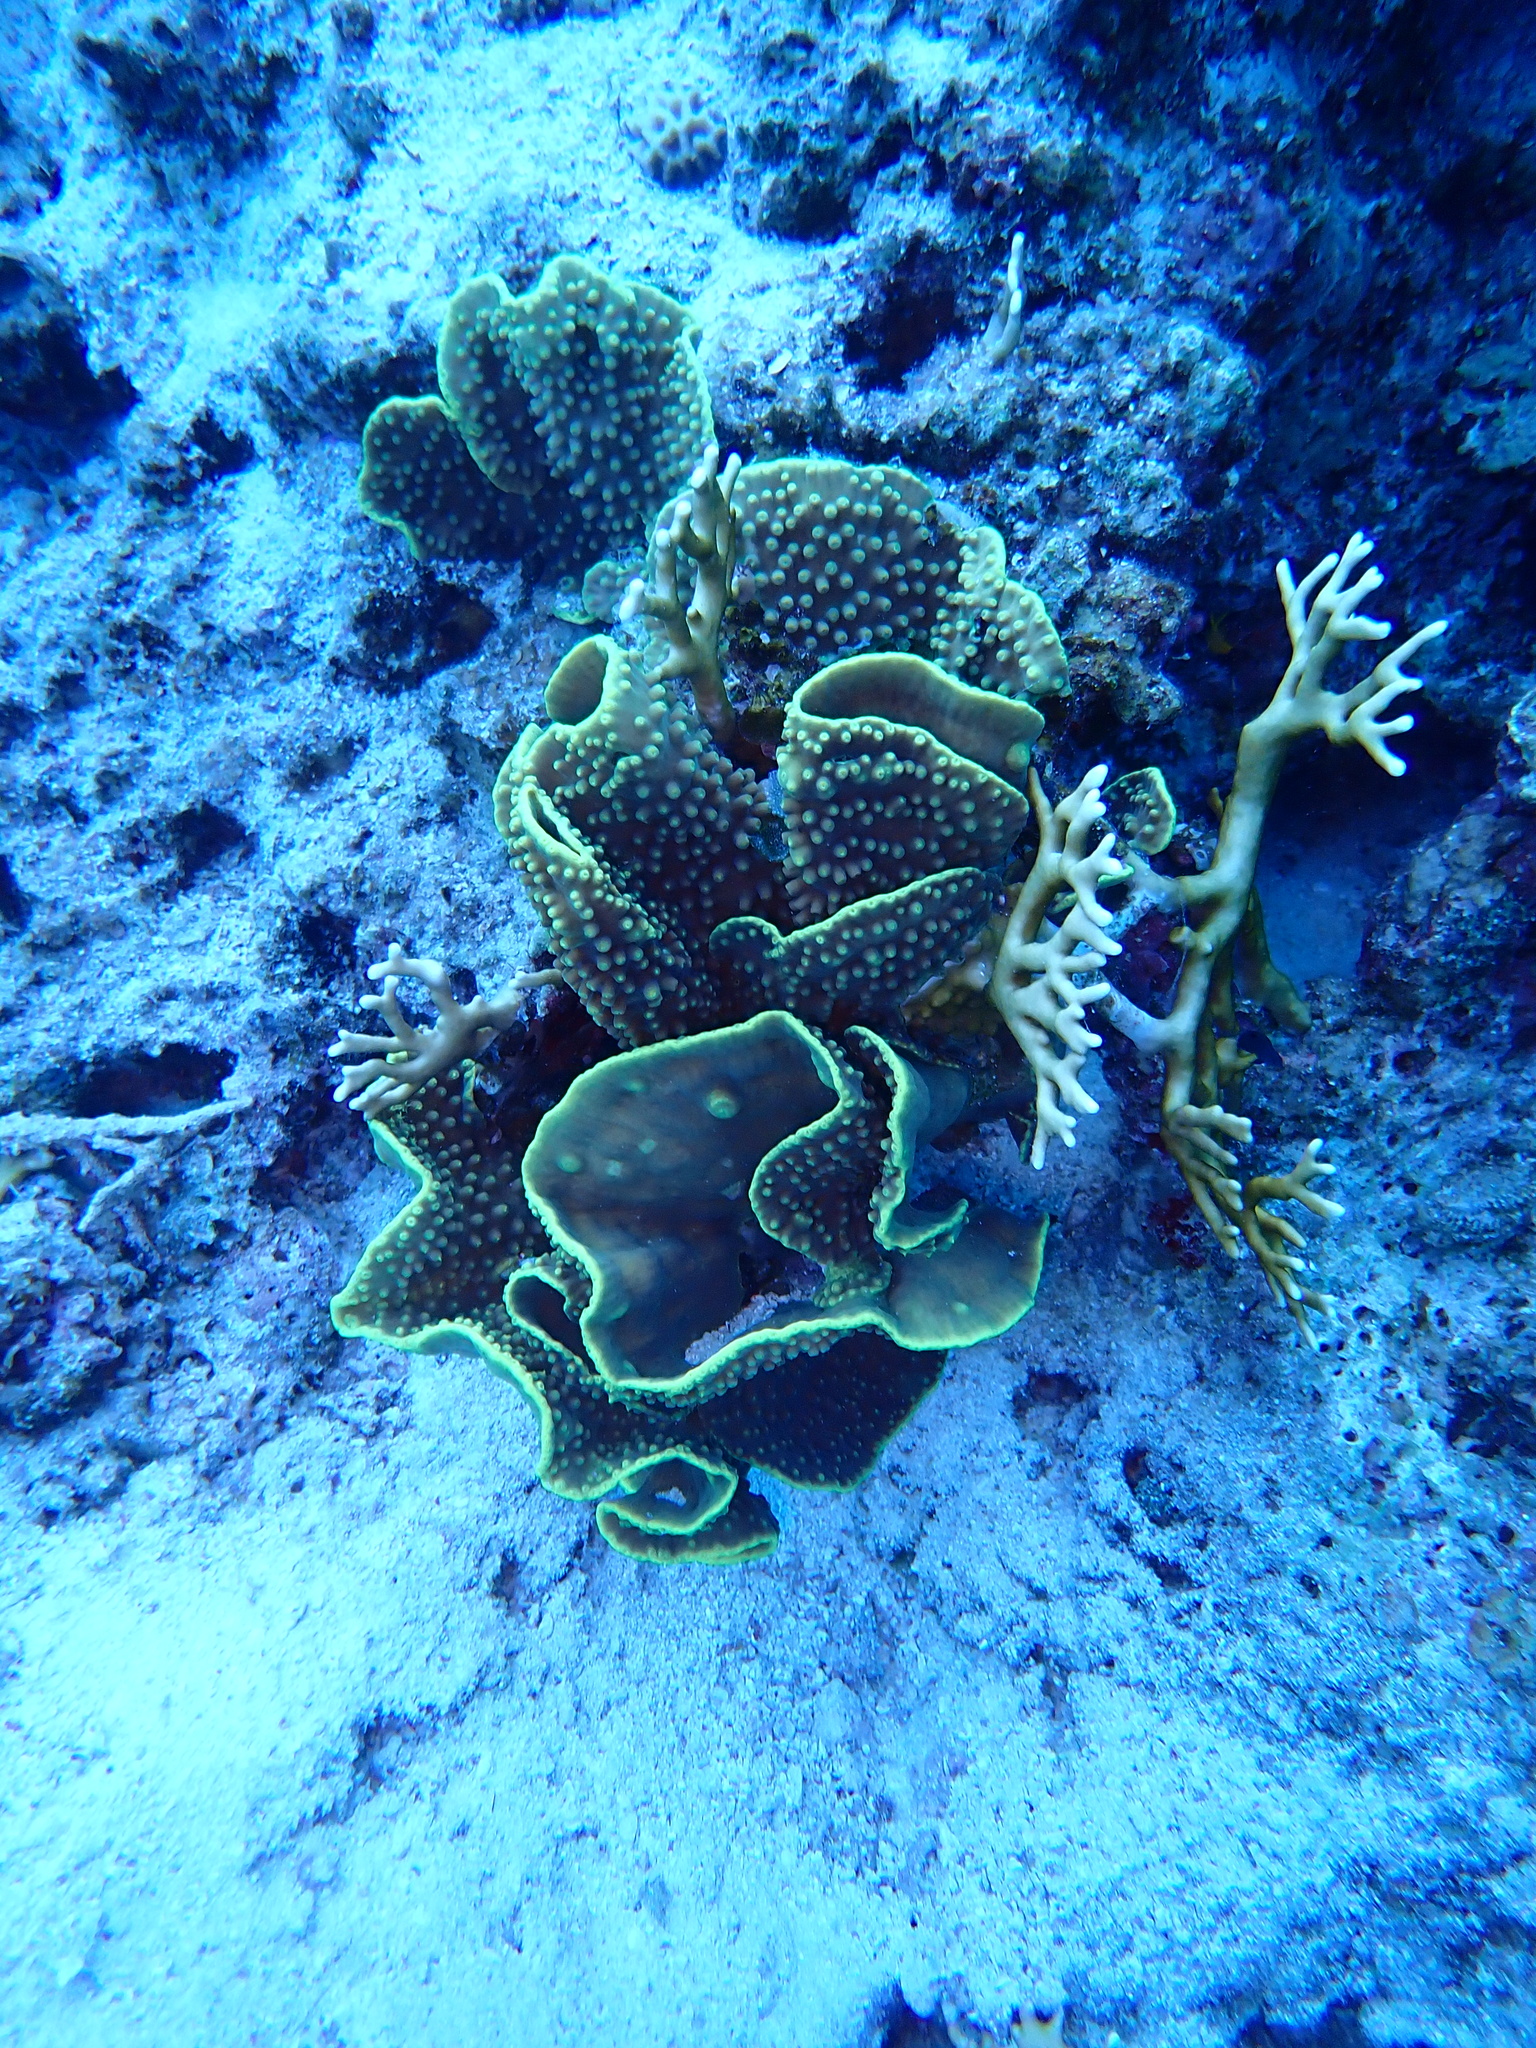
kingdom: Animalia
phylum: Cnidaria
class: Anthozoa
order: Scleractinia
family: Dendrophylliidae
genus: Turbinaria
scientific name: Turbinaria reniformis
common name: Disc coral
